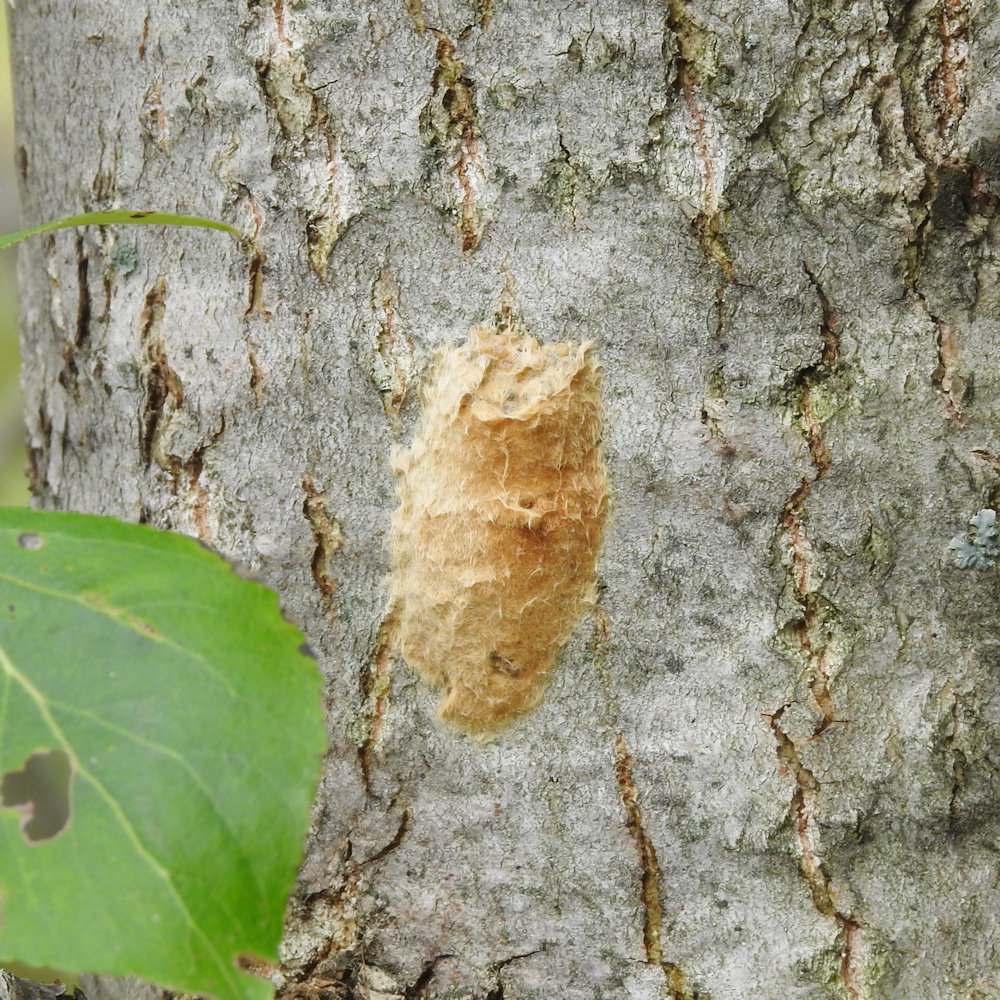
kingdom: Animalia
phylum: Arthropoda
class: Insecta
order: Lepidoptera
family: Erebidae
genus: Lymantria
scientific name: Lymantria dispar
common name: Gypsy moth
